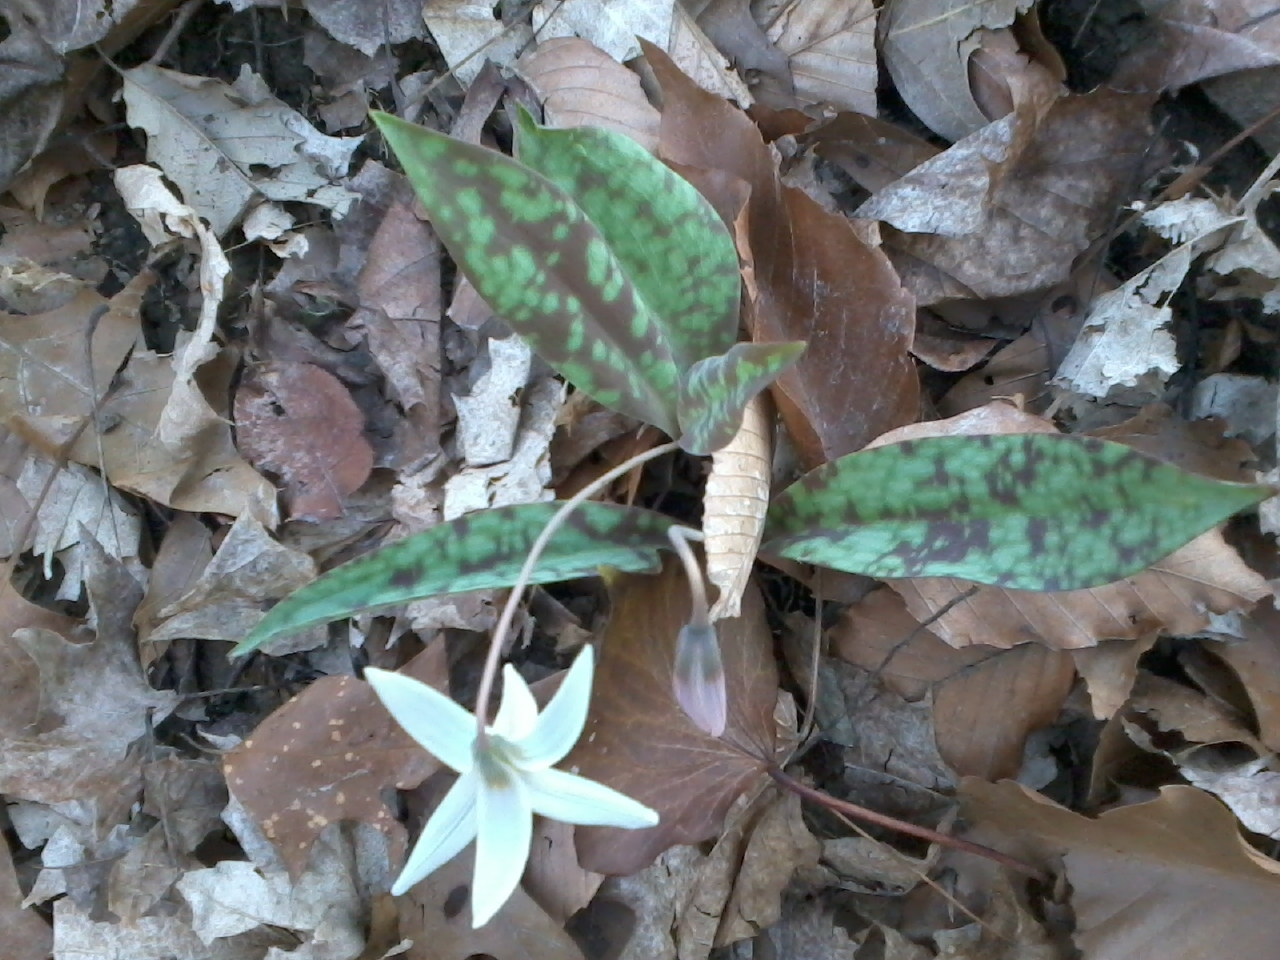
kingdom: Plantae
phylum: Tracheophyta
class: Liliopsida
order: Liliales
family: Liliaceae
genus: Erythronium
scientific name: Erythronium albidum
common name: White trout-lily
